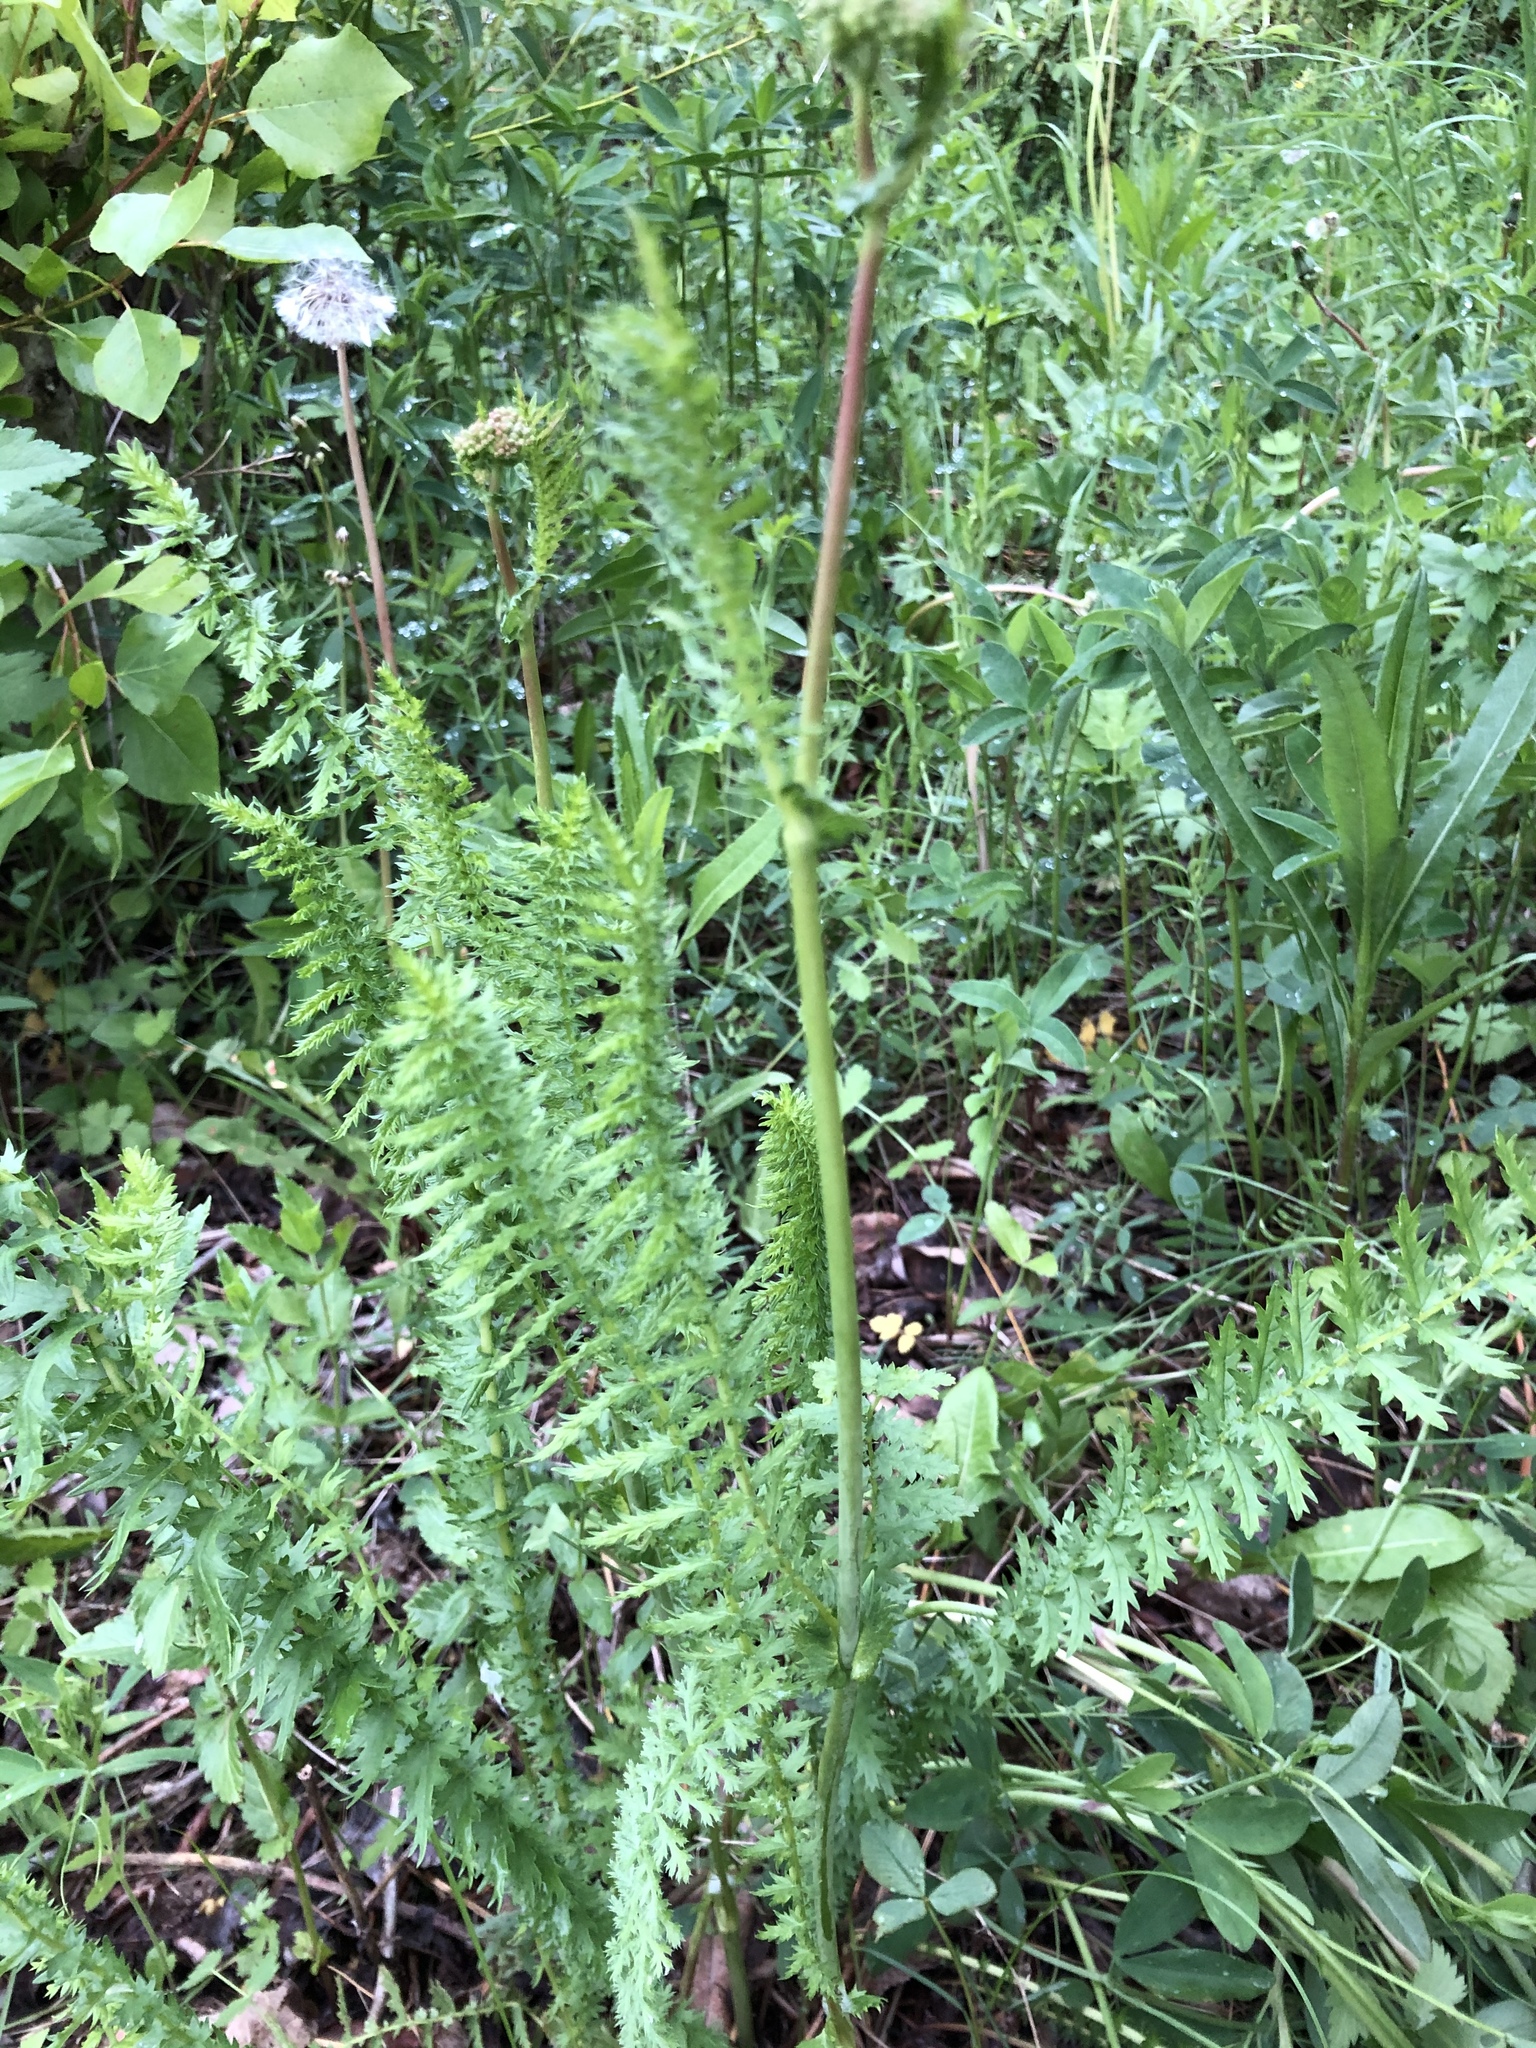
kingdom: Plantae
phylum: Tracheophyta
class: Magnoliopsida
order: Rosales
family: Rosaceae
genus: Filipendula
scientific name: Filipendula vulgaris
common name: Dropwort
